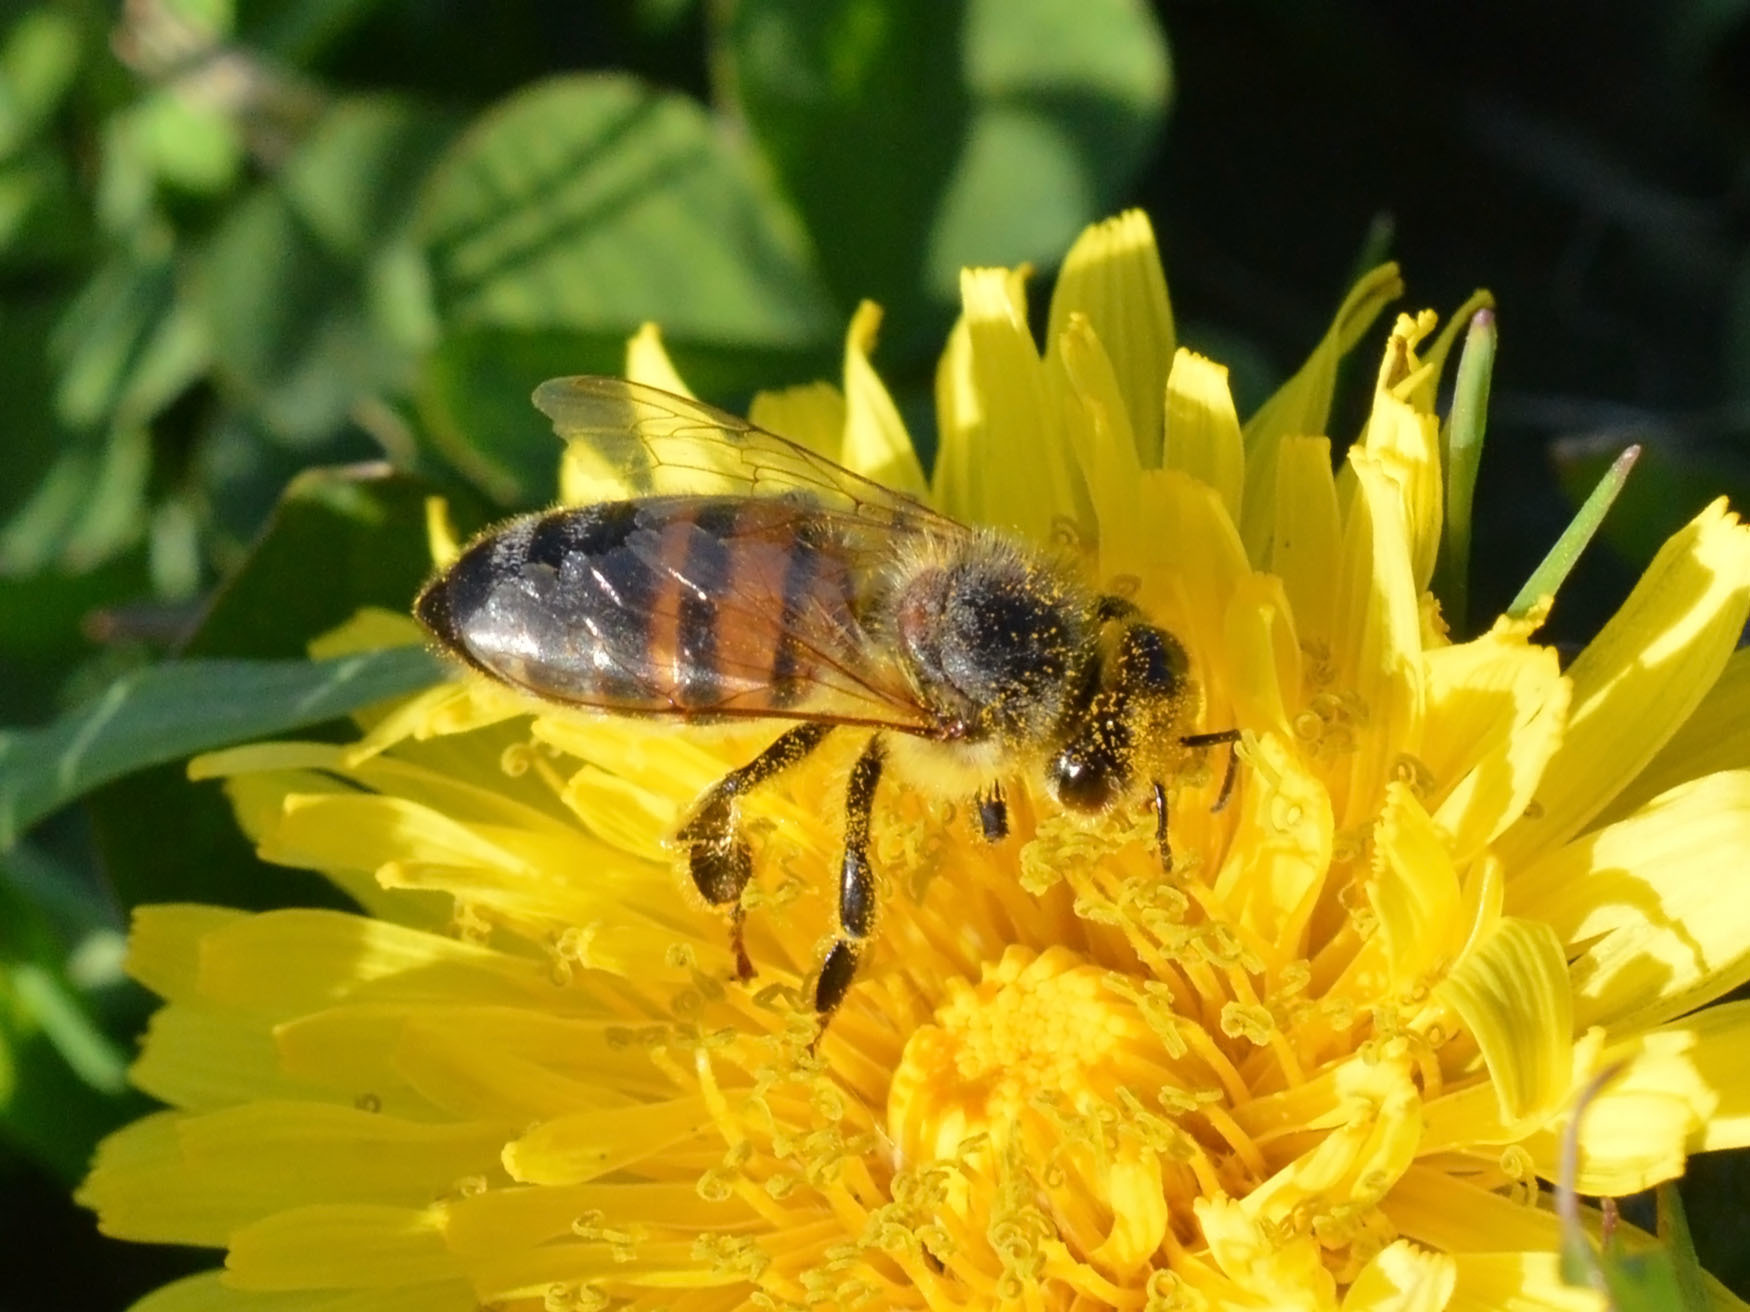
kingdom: Animalia
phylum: Arthropoda
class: Insecta
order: Hymenoptera
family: Apidae
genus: Apis
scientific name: Apis mellifera
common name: Honey bee
